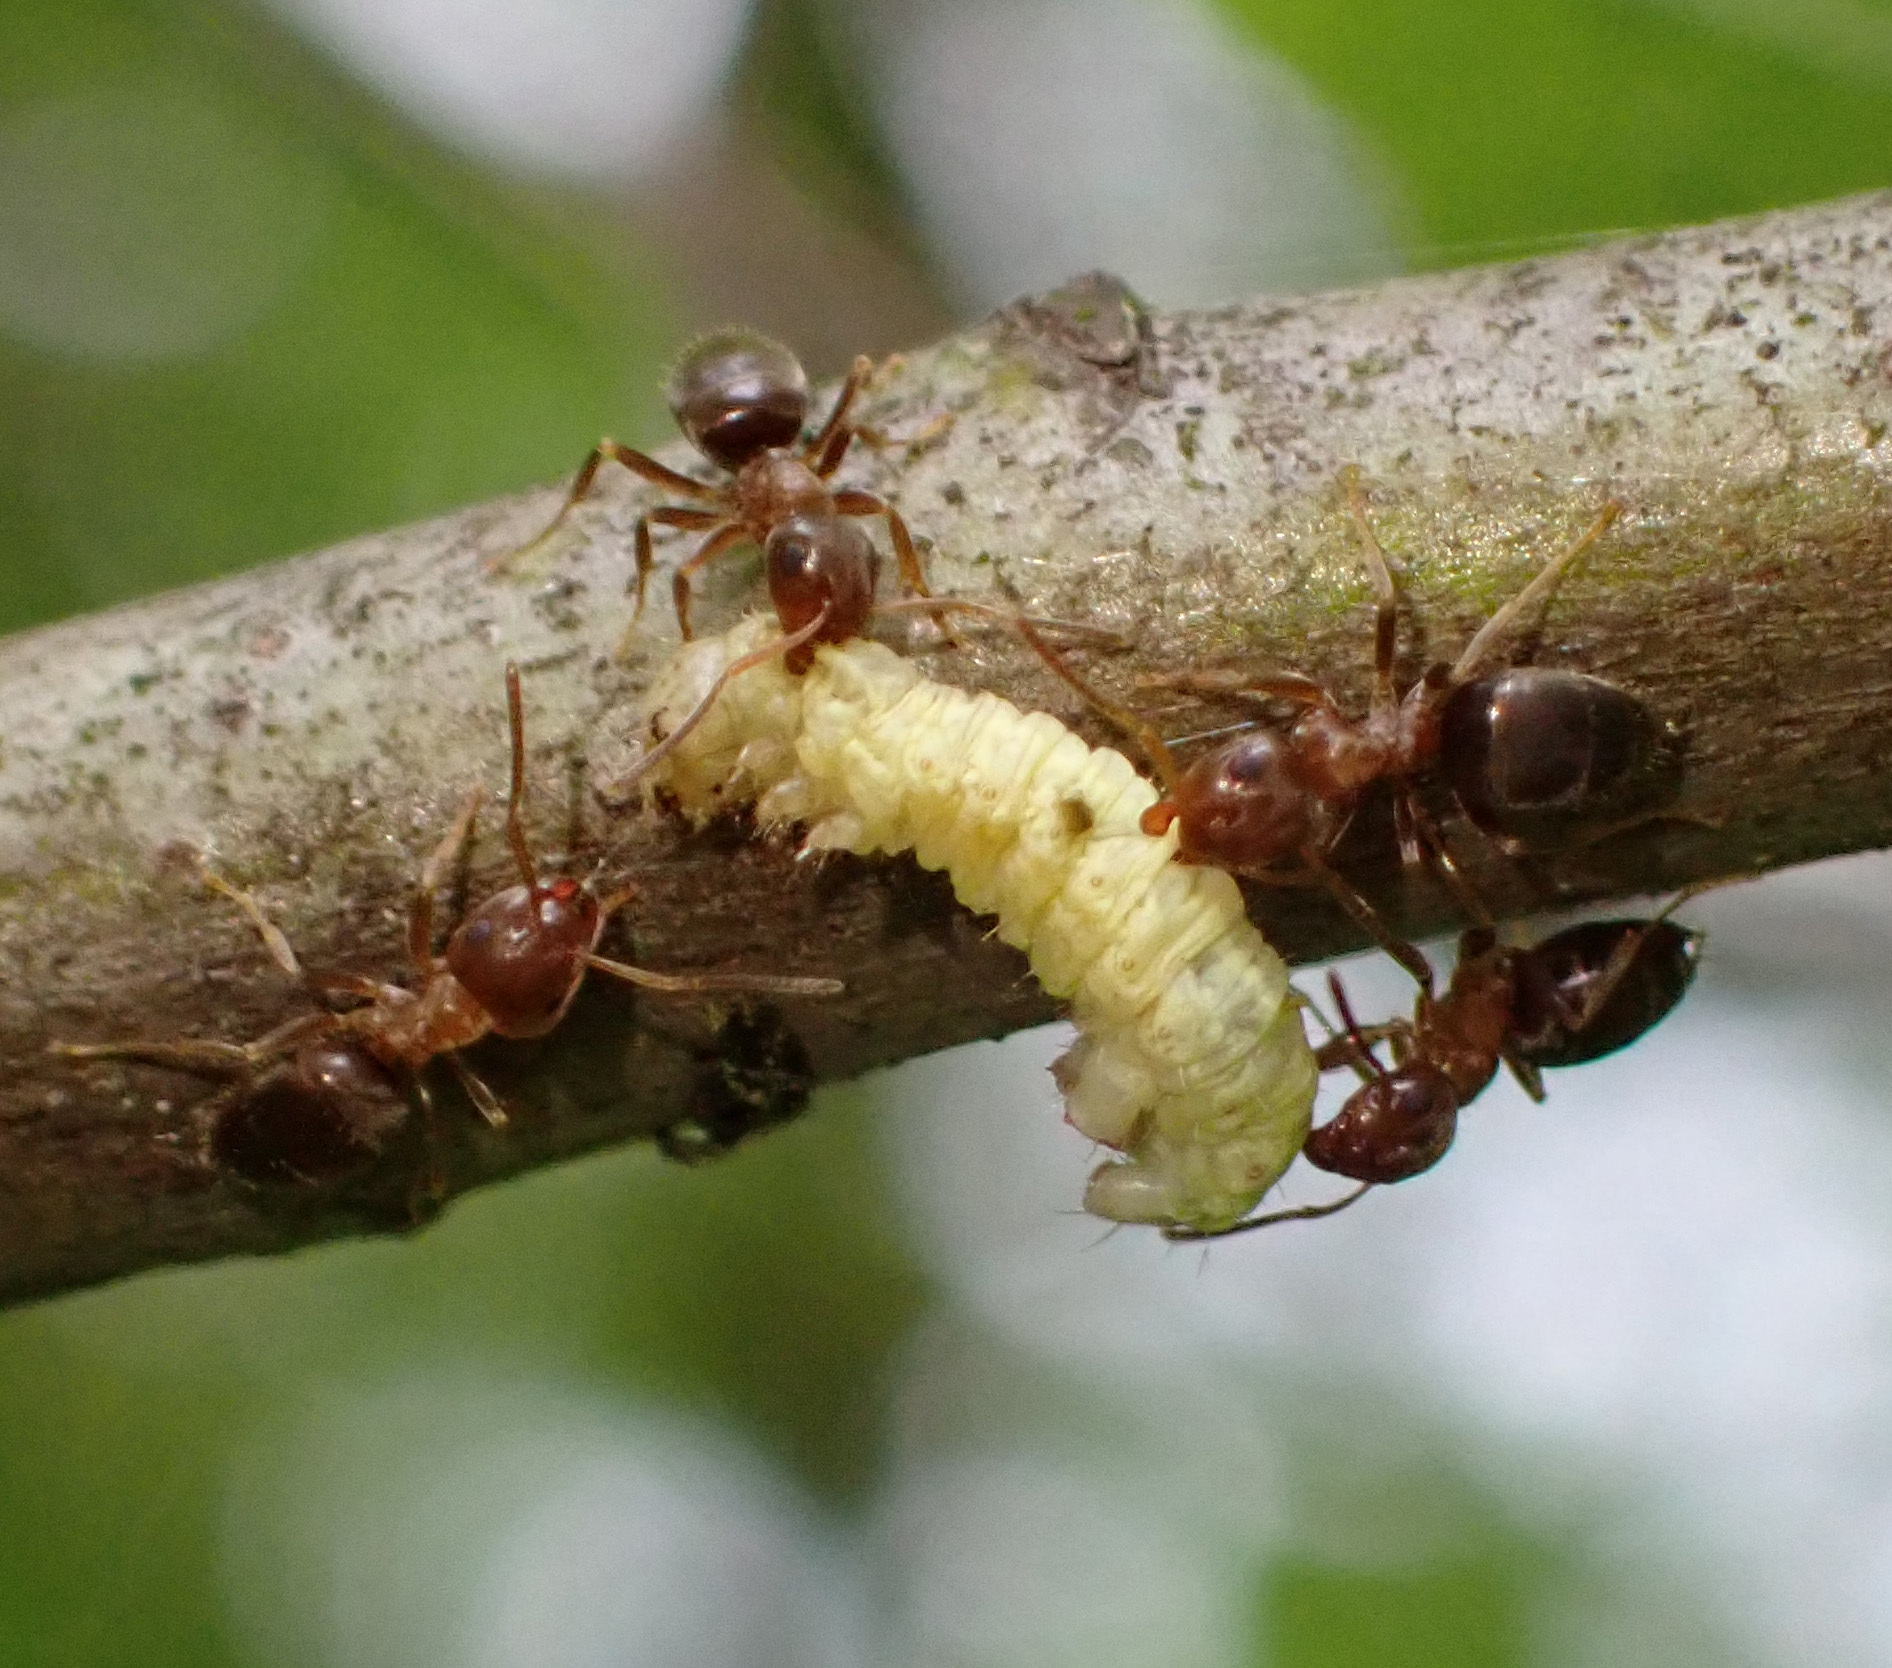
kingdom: Animalia
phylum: Arthropoda
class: Insecta
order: Hymenoptera
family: Formicidae
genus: Lasius
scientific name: Lasius brunneus
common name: Brown ant
